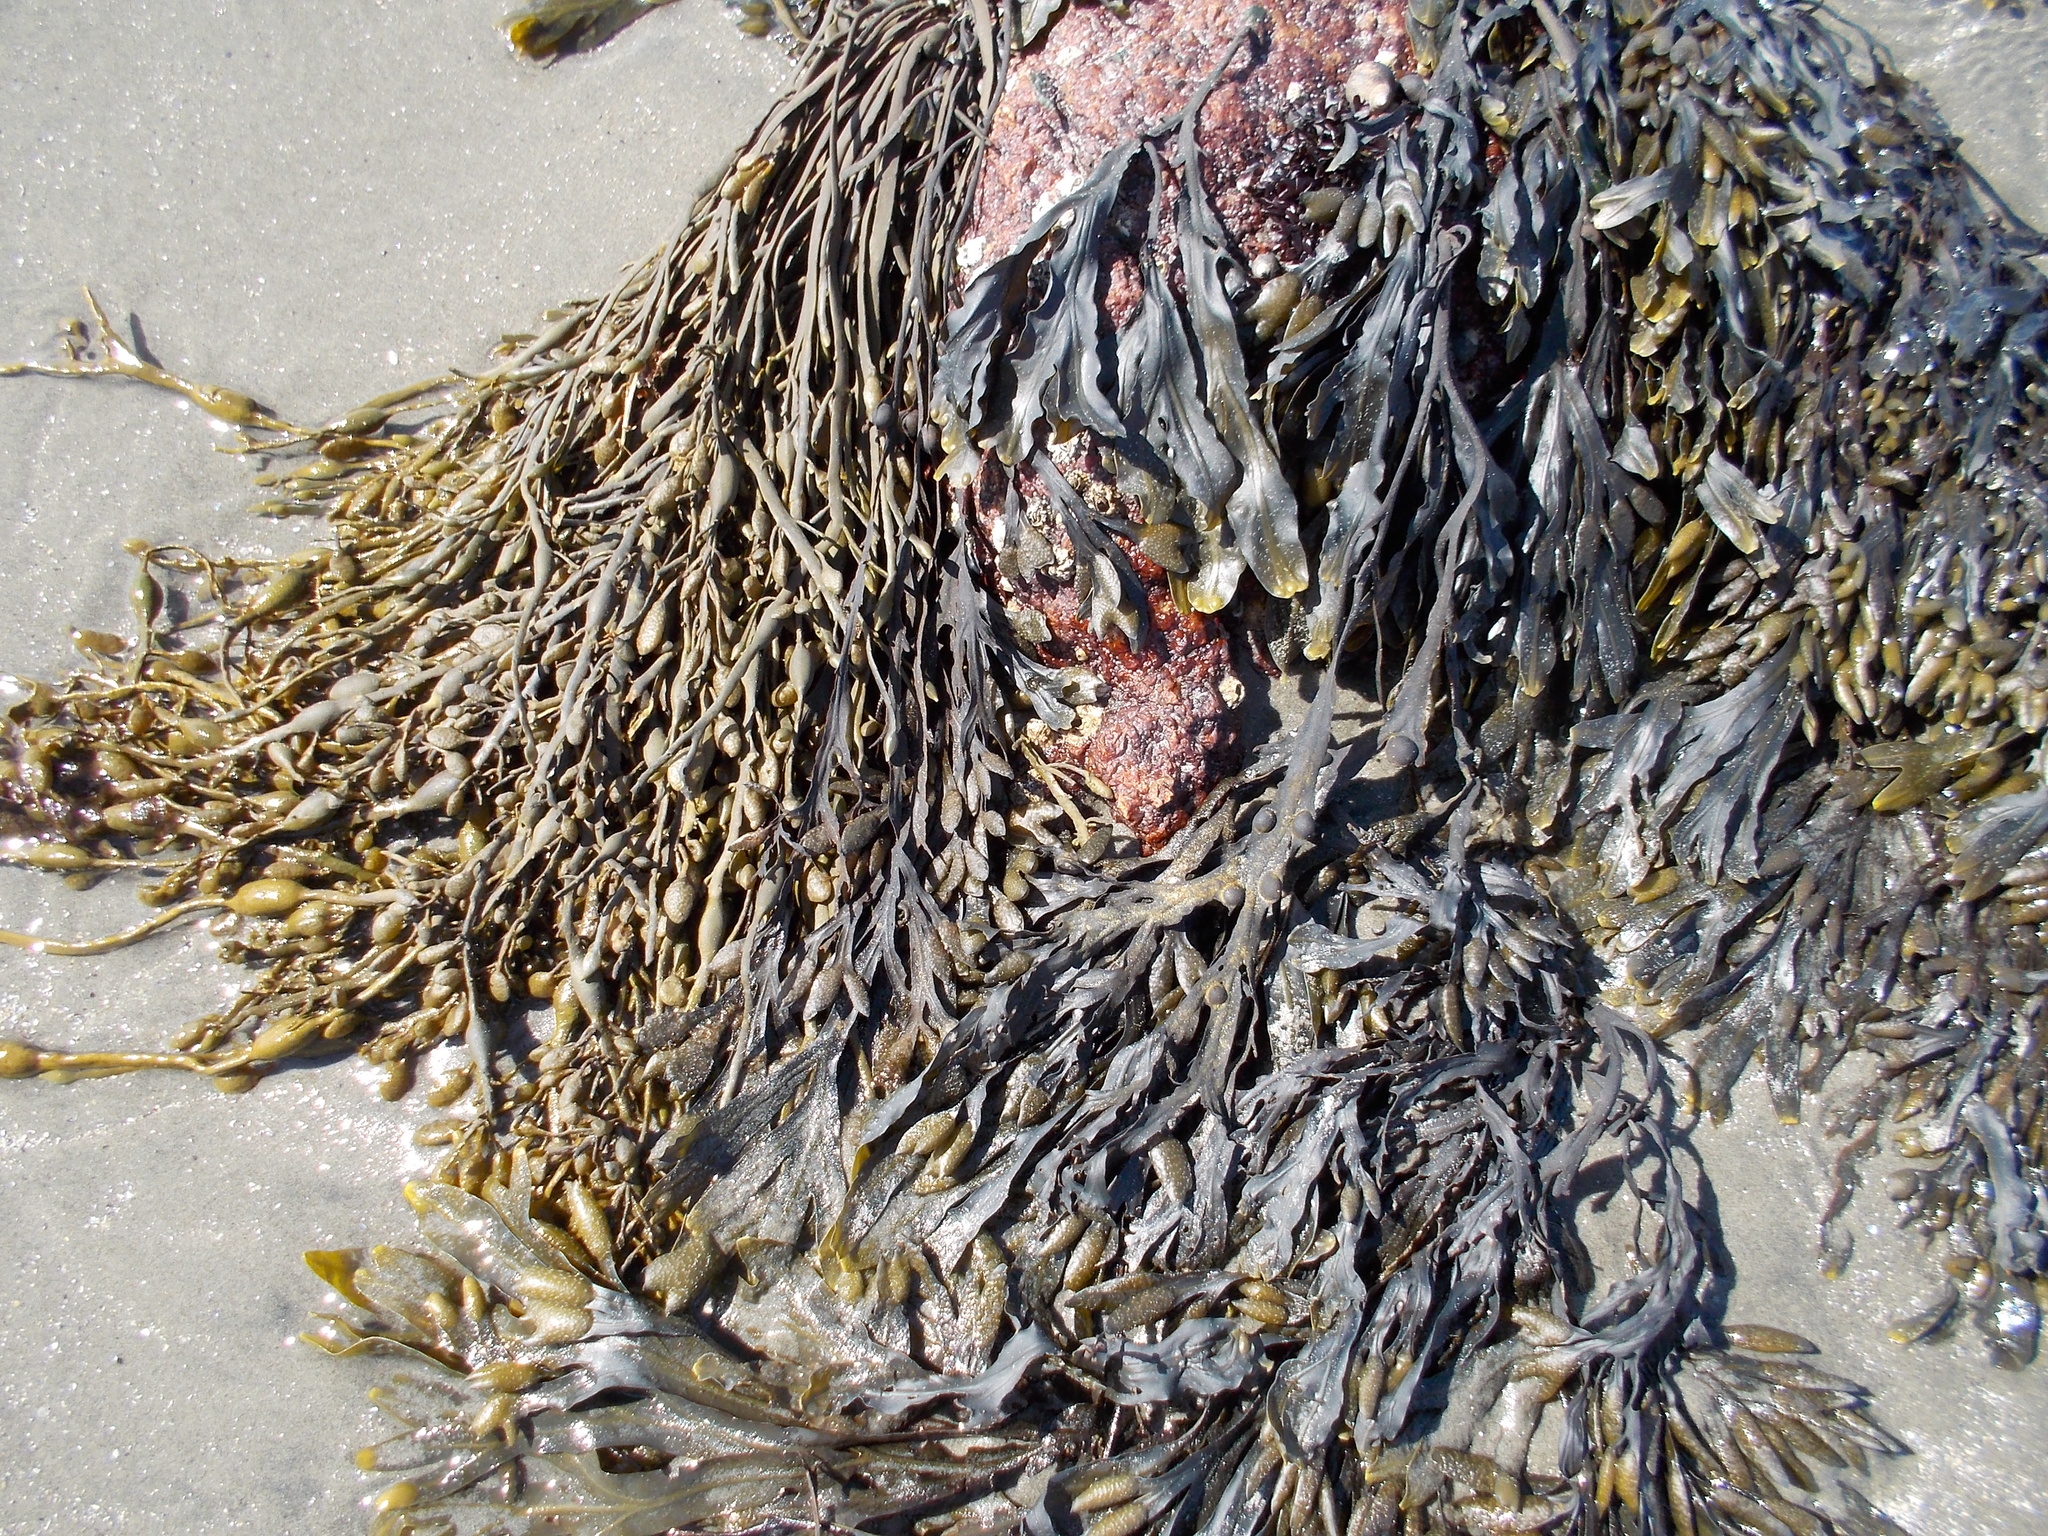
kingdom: Chromista
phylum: Ochrophyta
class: Phaeophyceae
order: Fucales
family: Fucaceae
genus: Fucus
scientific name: Fucus vesiculosus
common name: Bladder wrack
